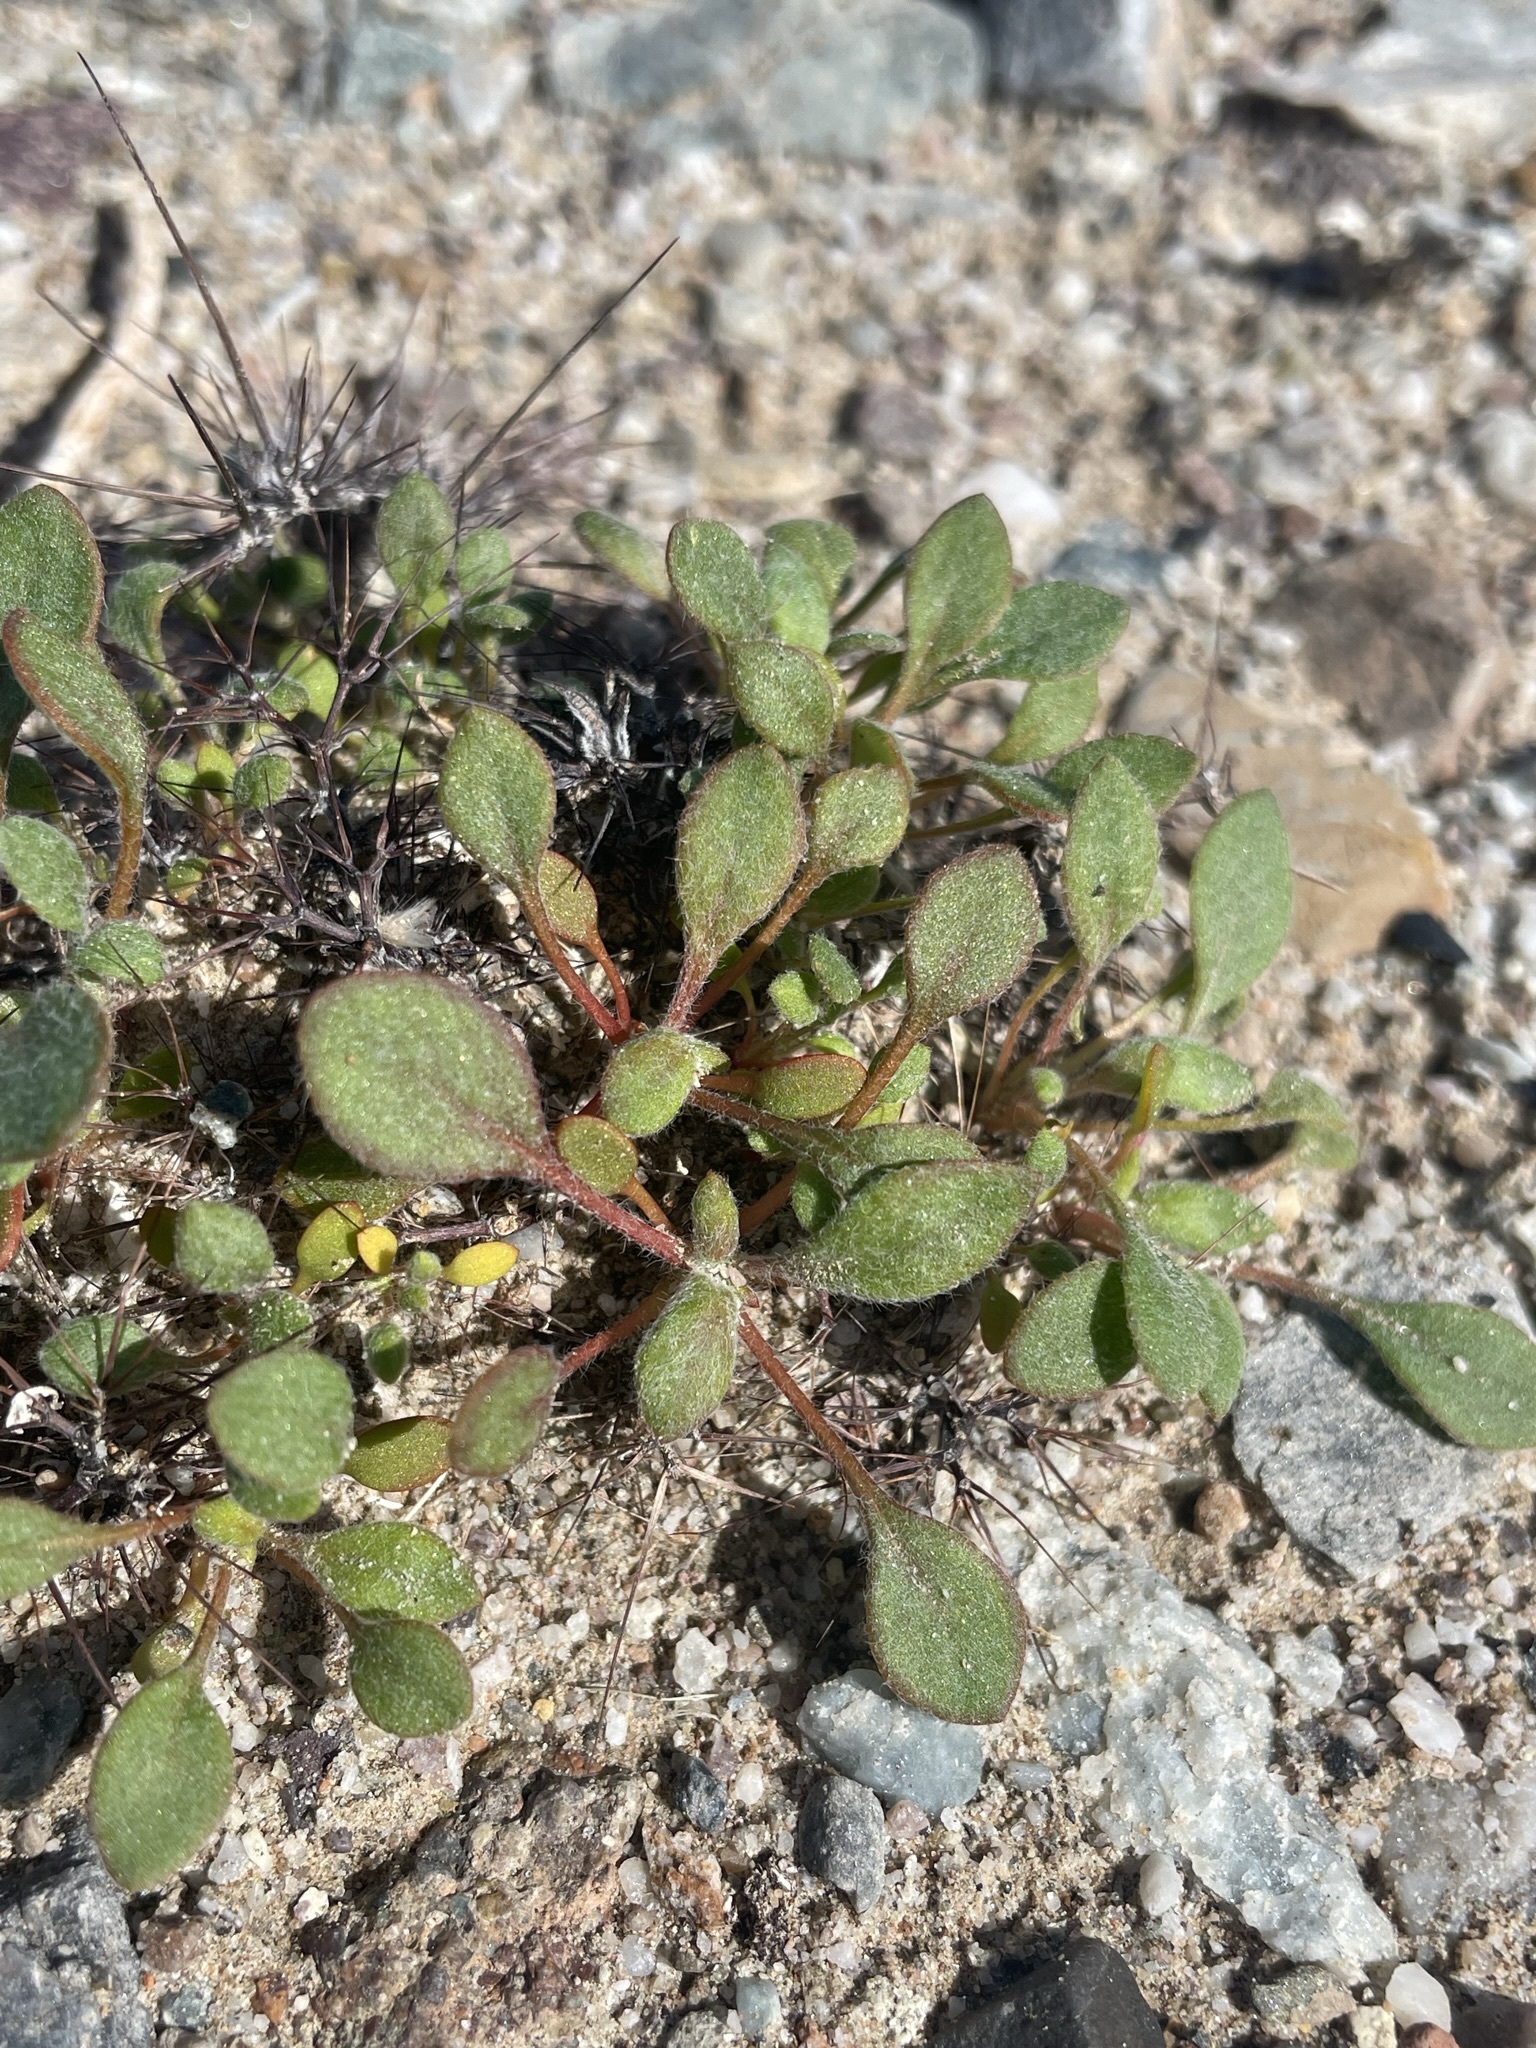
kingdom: Plantae
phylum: Tracheophyta
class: Magnoliopsida
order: Caryophyllales
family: Polygonaceae
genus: Chorizanthe
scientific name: Chorizanthe rigida
